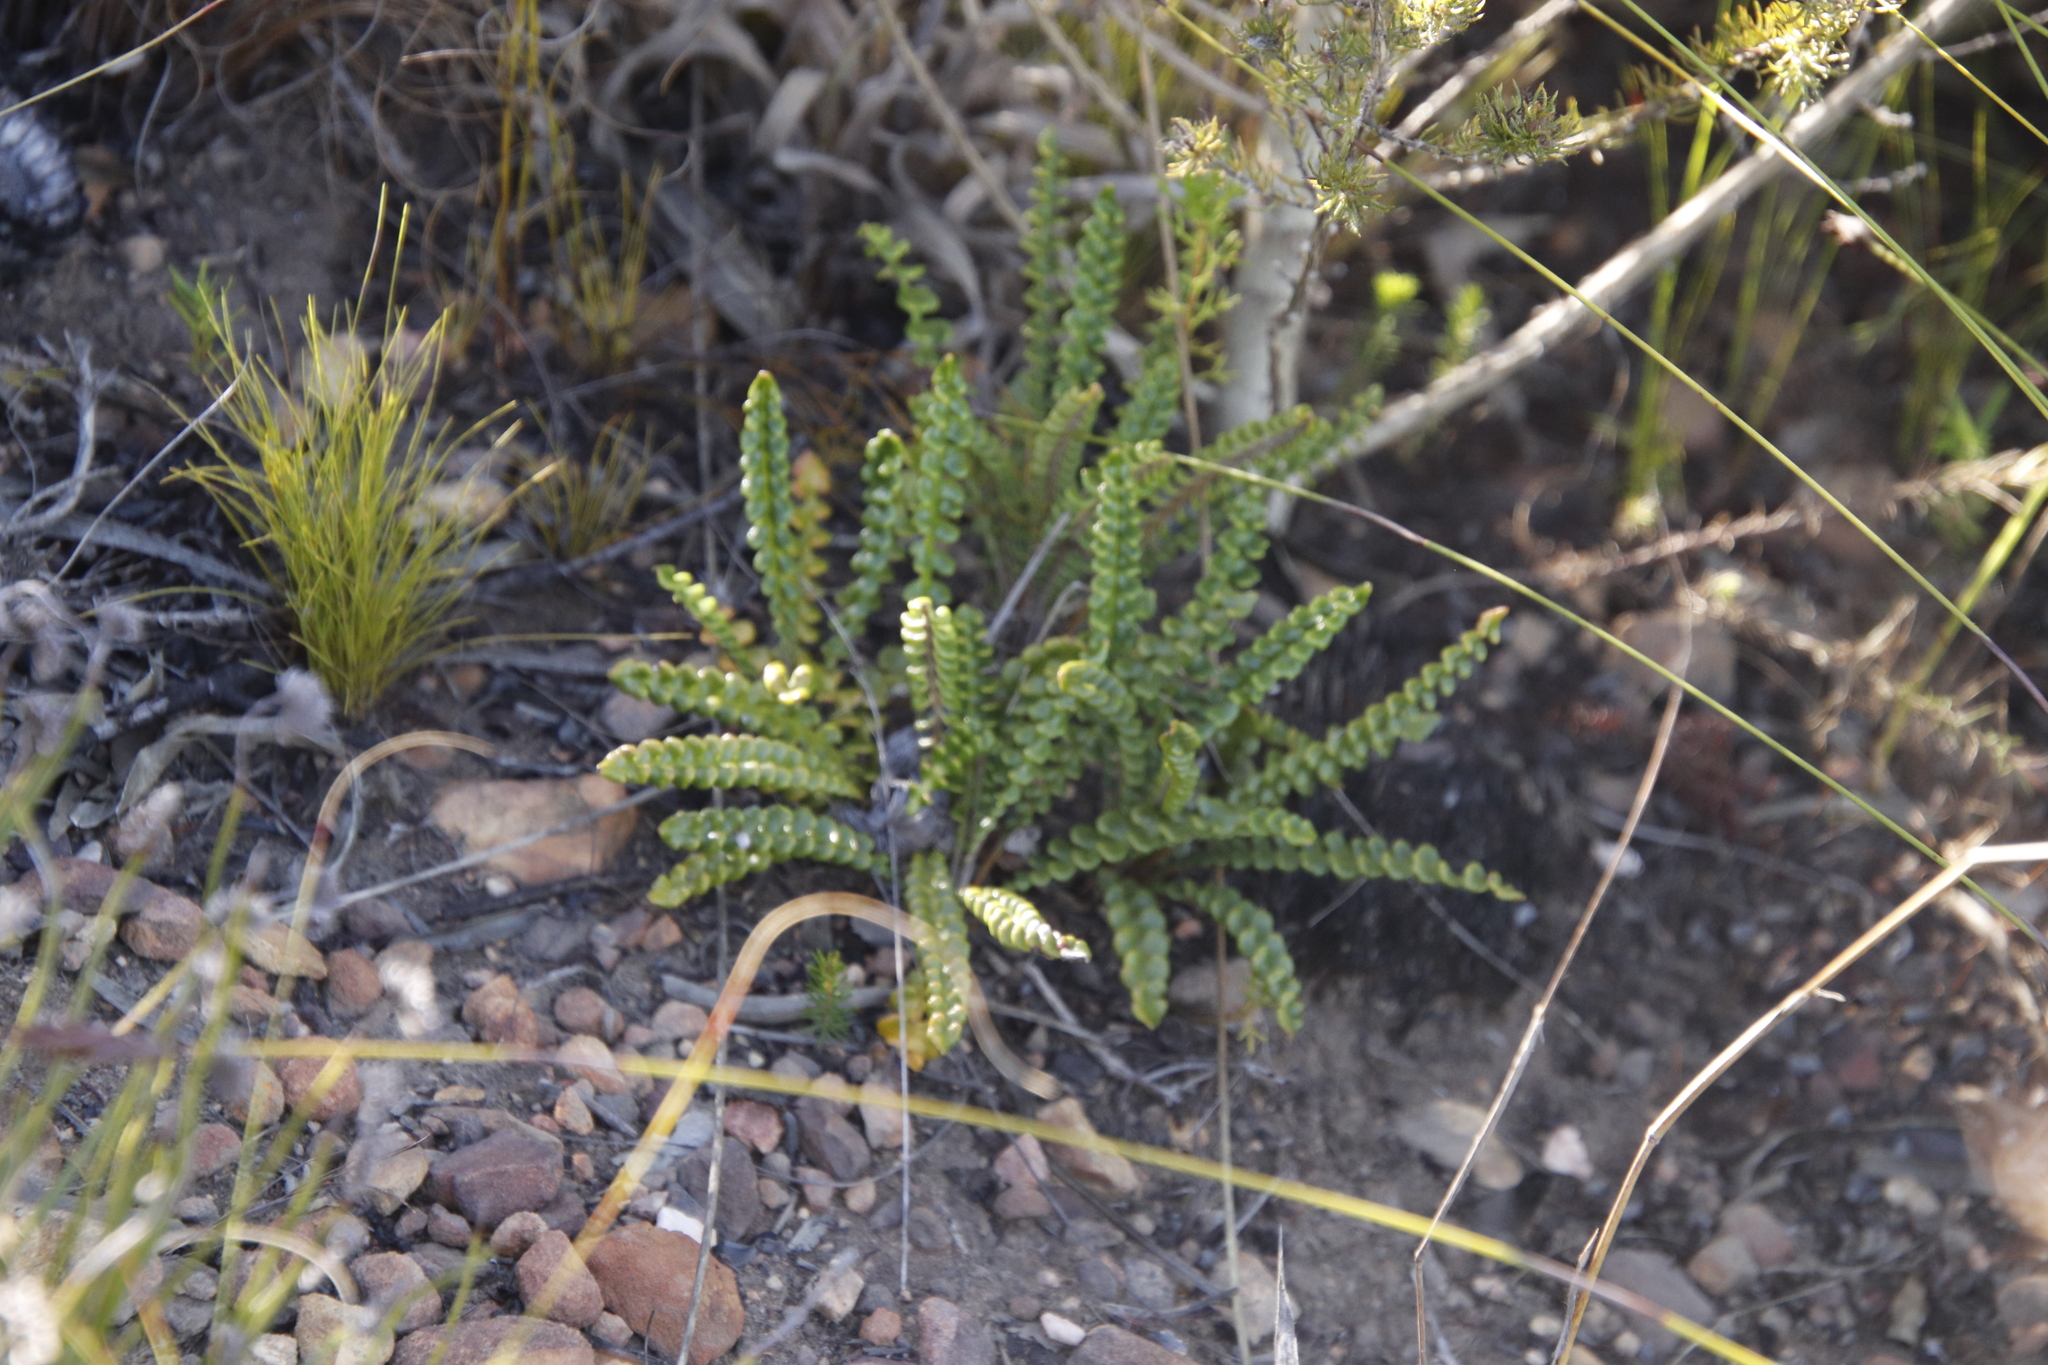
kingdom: Plantae
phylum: Tracheophyta
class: Magnoliopsida
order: Asterales
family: Asteraceae
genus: Gerbera
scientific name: Gerbera linnaei
